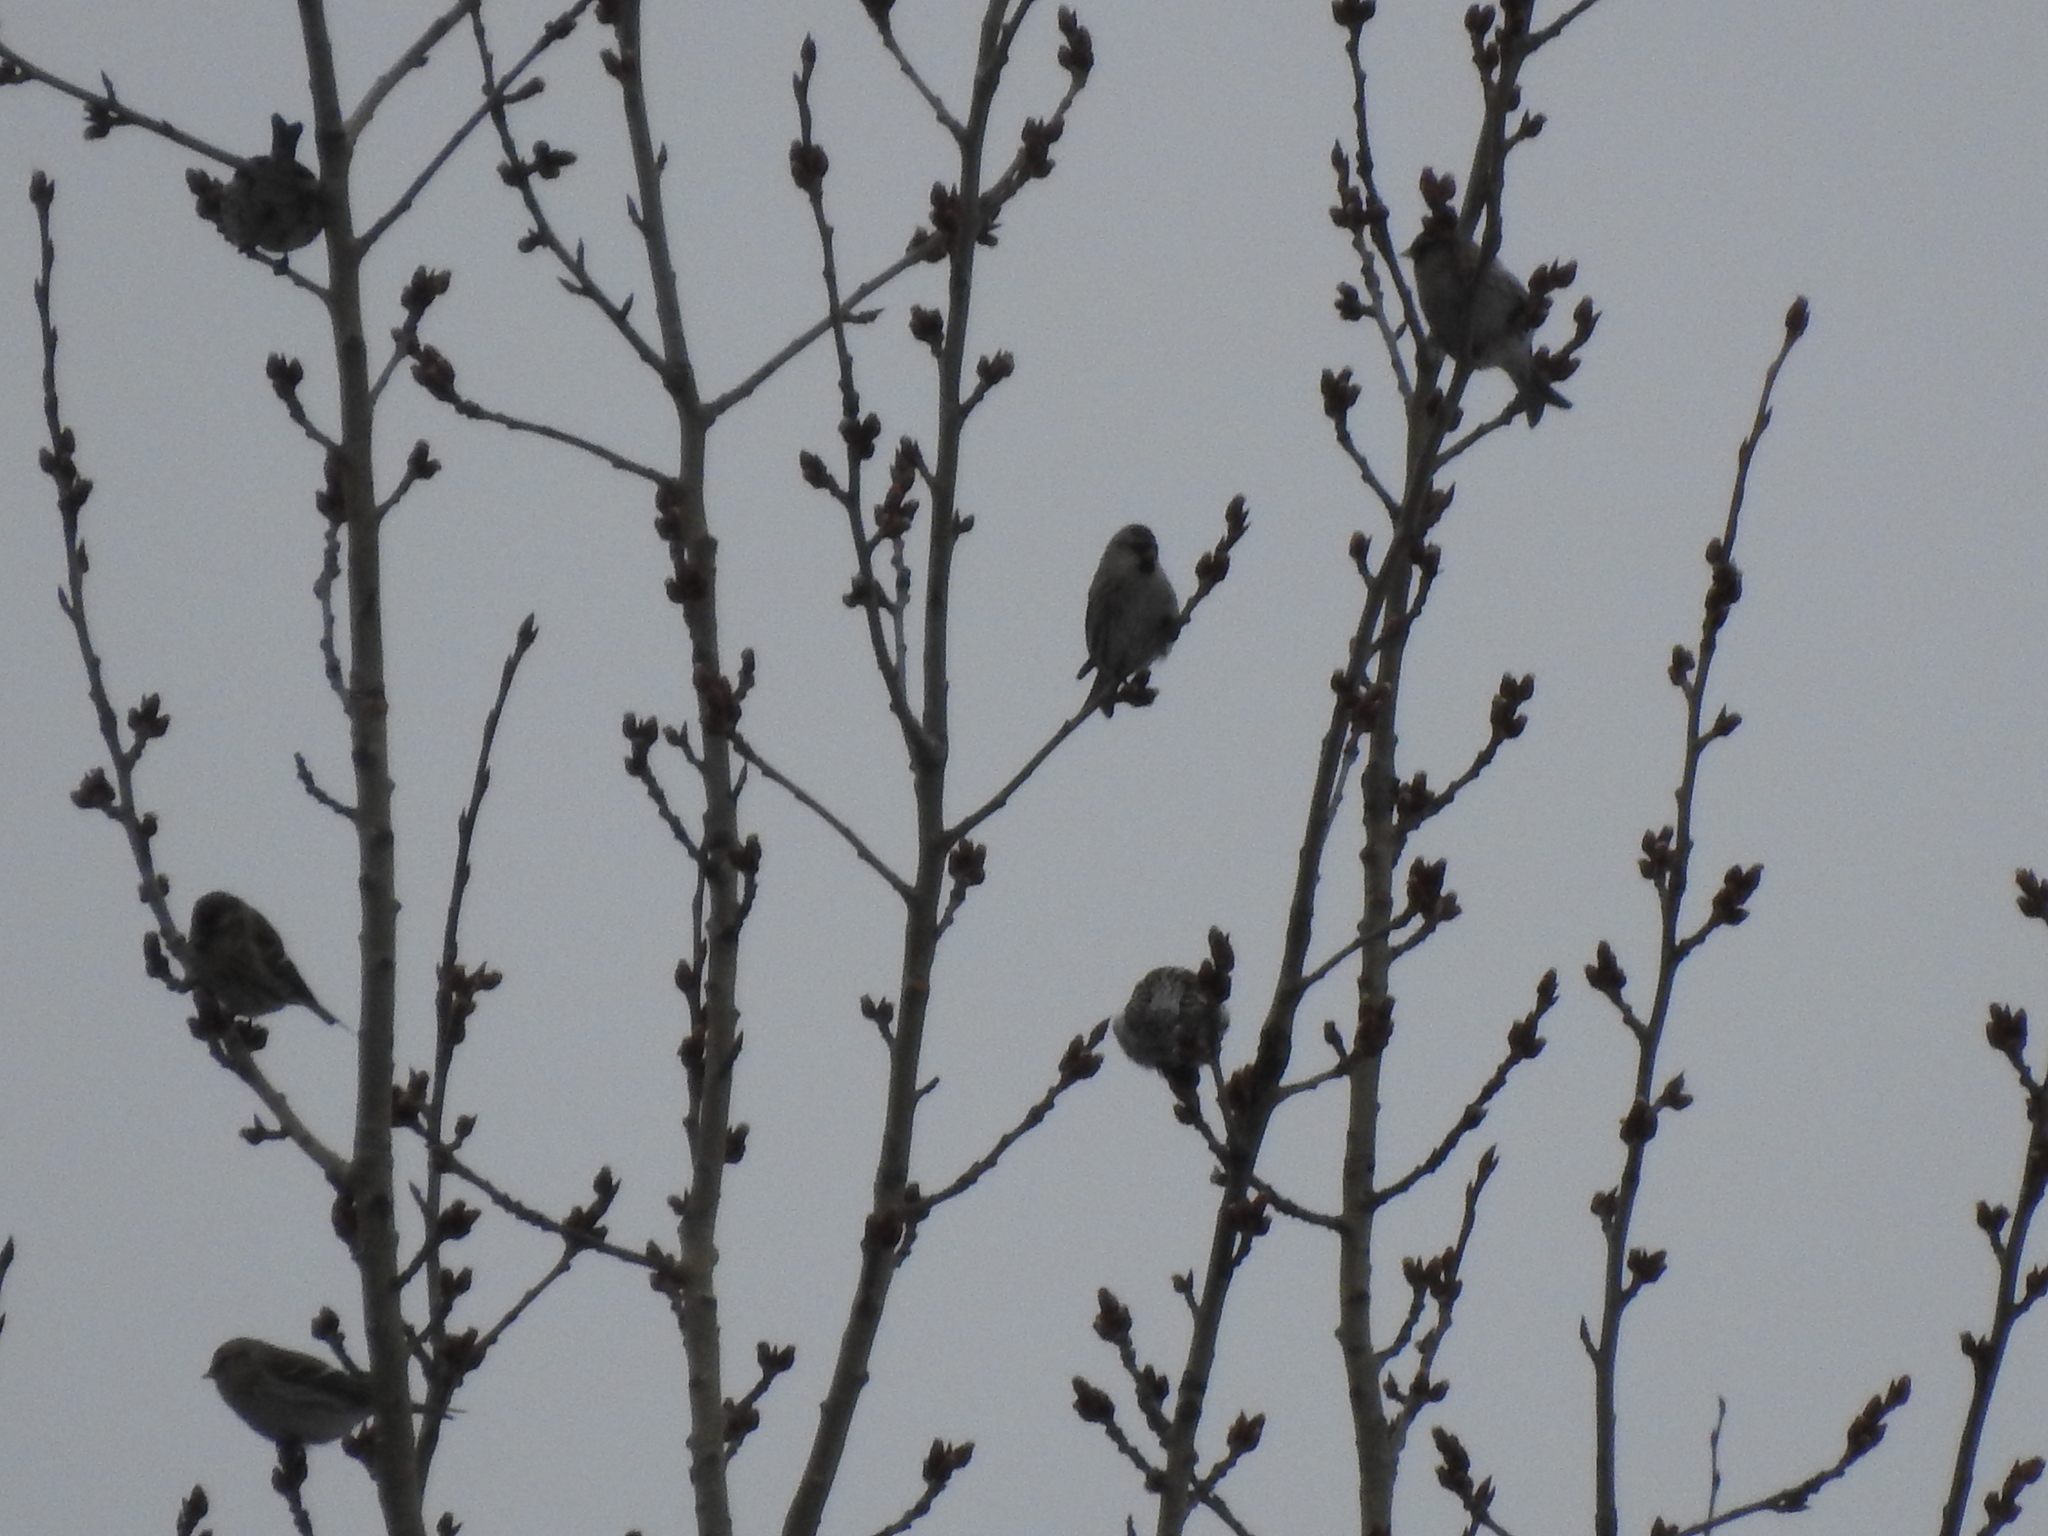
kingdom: Animalia
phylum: Chordata
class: Aves
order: Passeriformes
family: Fringillidae
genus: Acanthis
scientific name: Acanthis flammea
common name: Common redpoll
